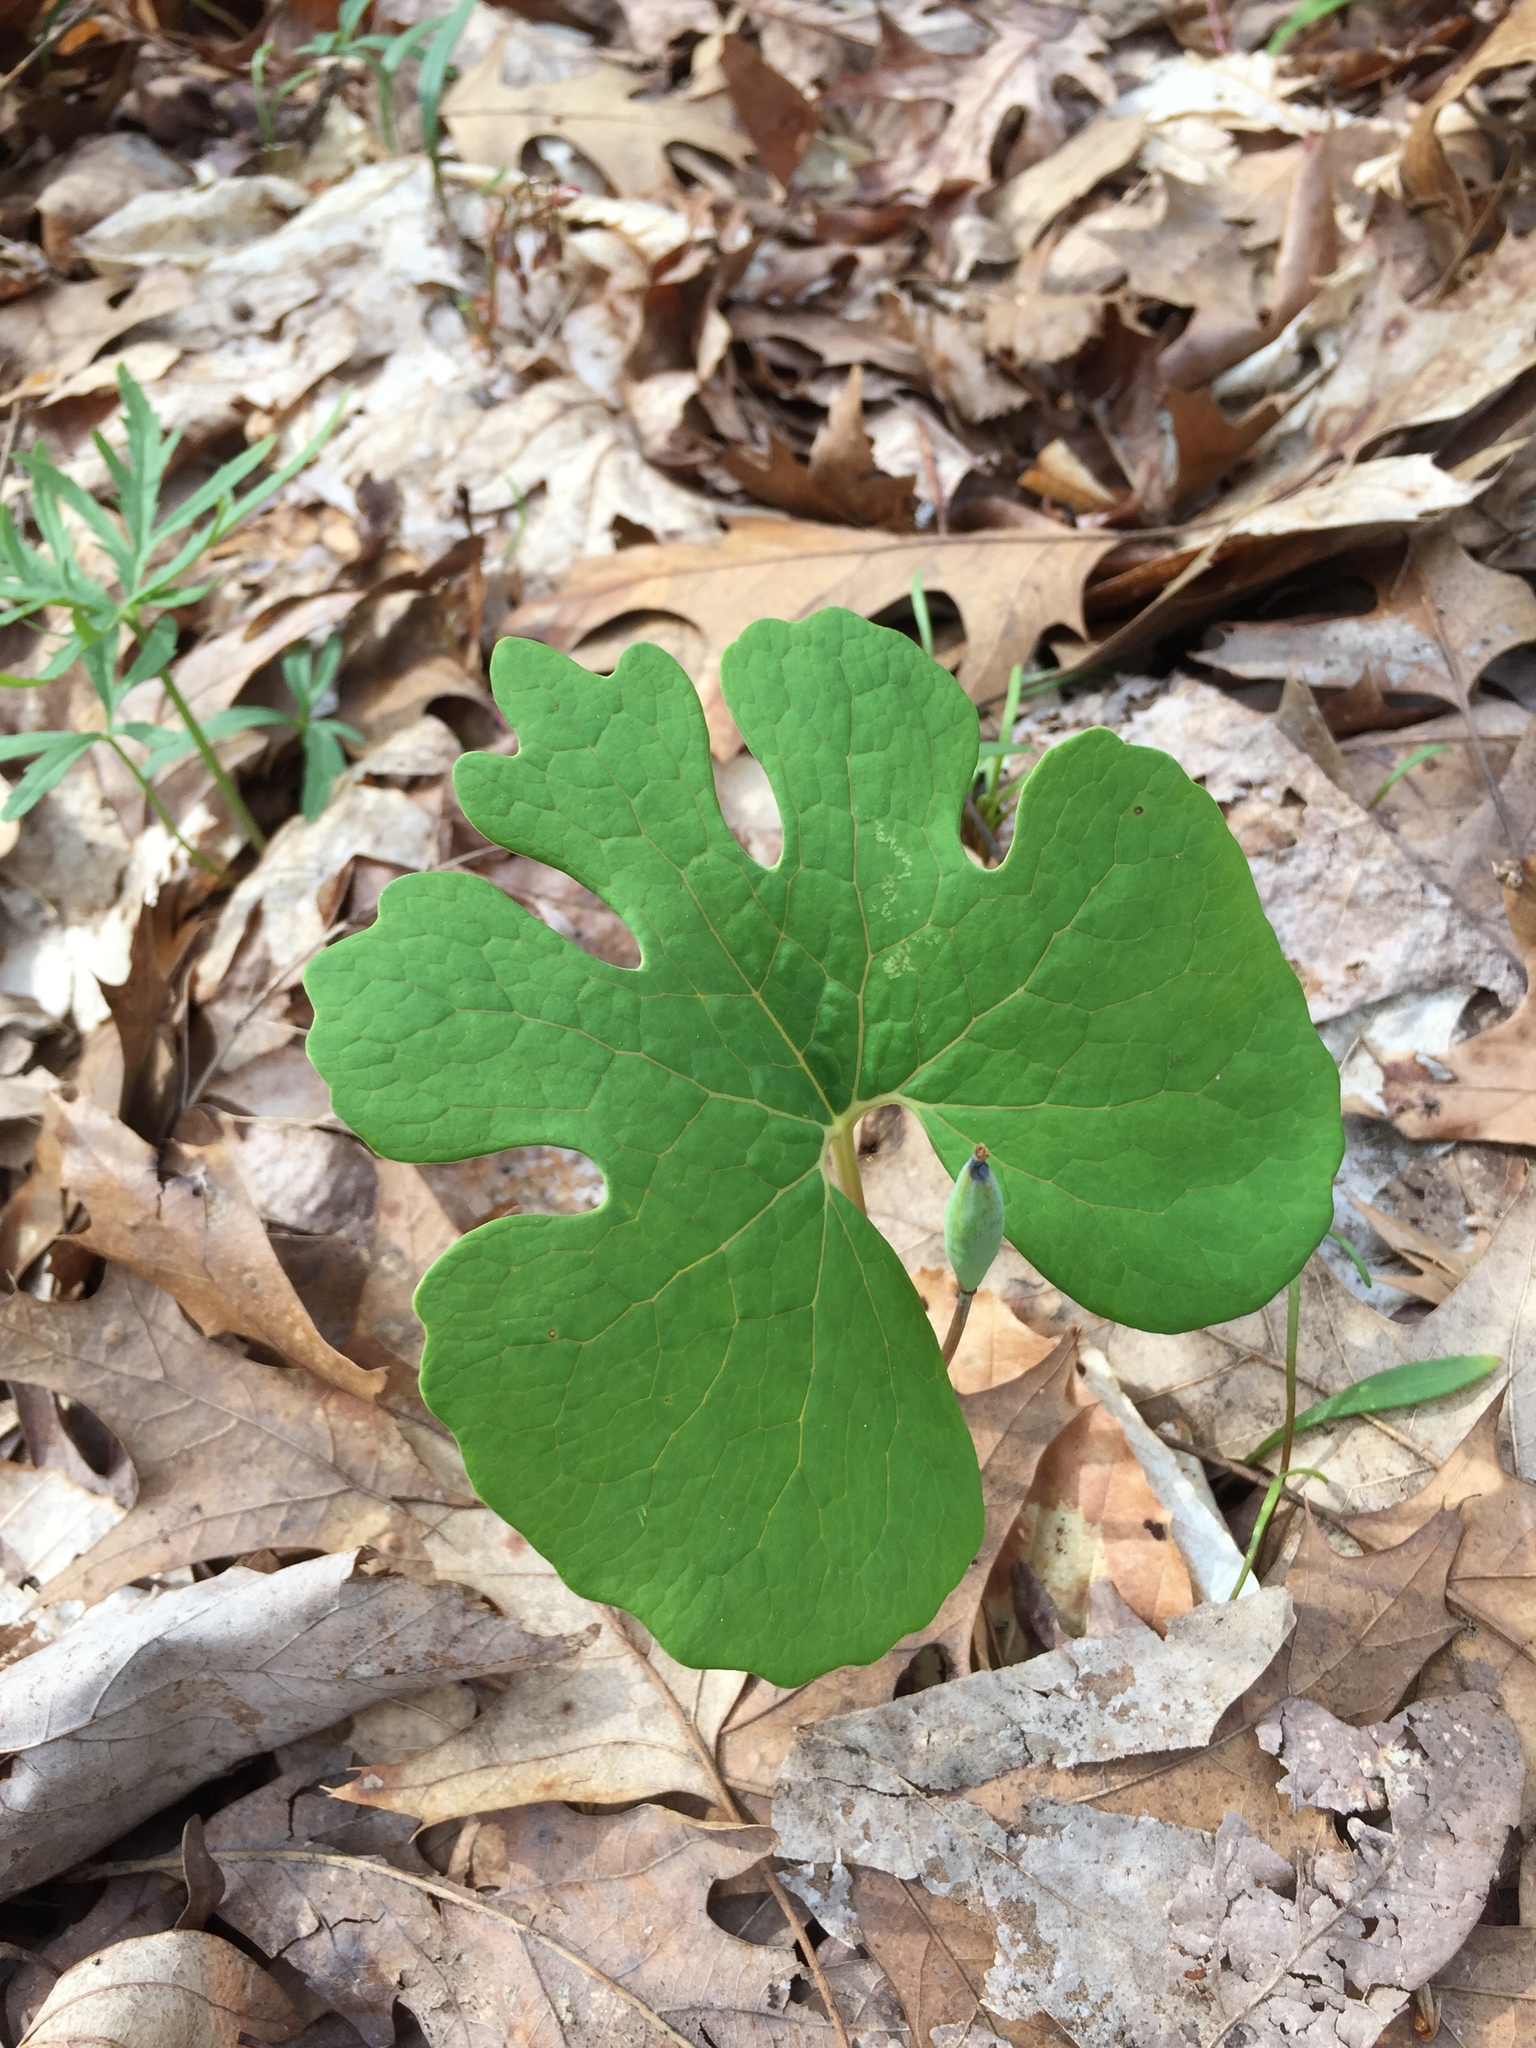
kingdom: Plantae
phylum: Tracheophyta
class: Magnoliopsida
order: Ranunculales
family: Papaveraceae
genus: Sanguinaria
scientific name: Sanguinaria canadensis
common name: Bloodroot
